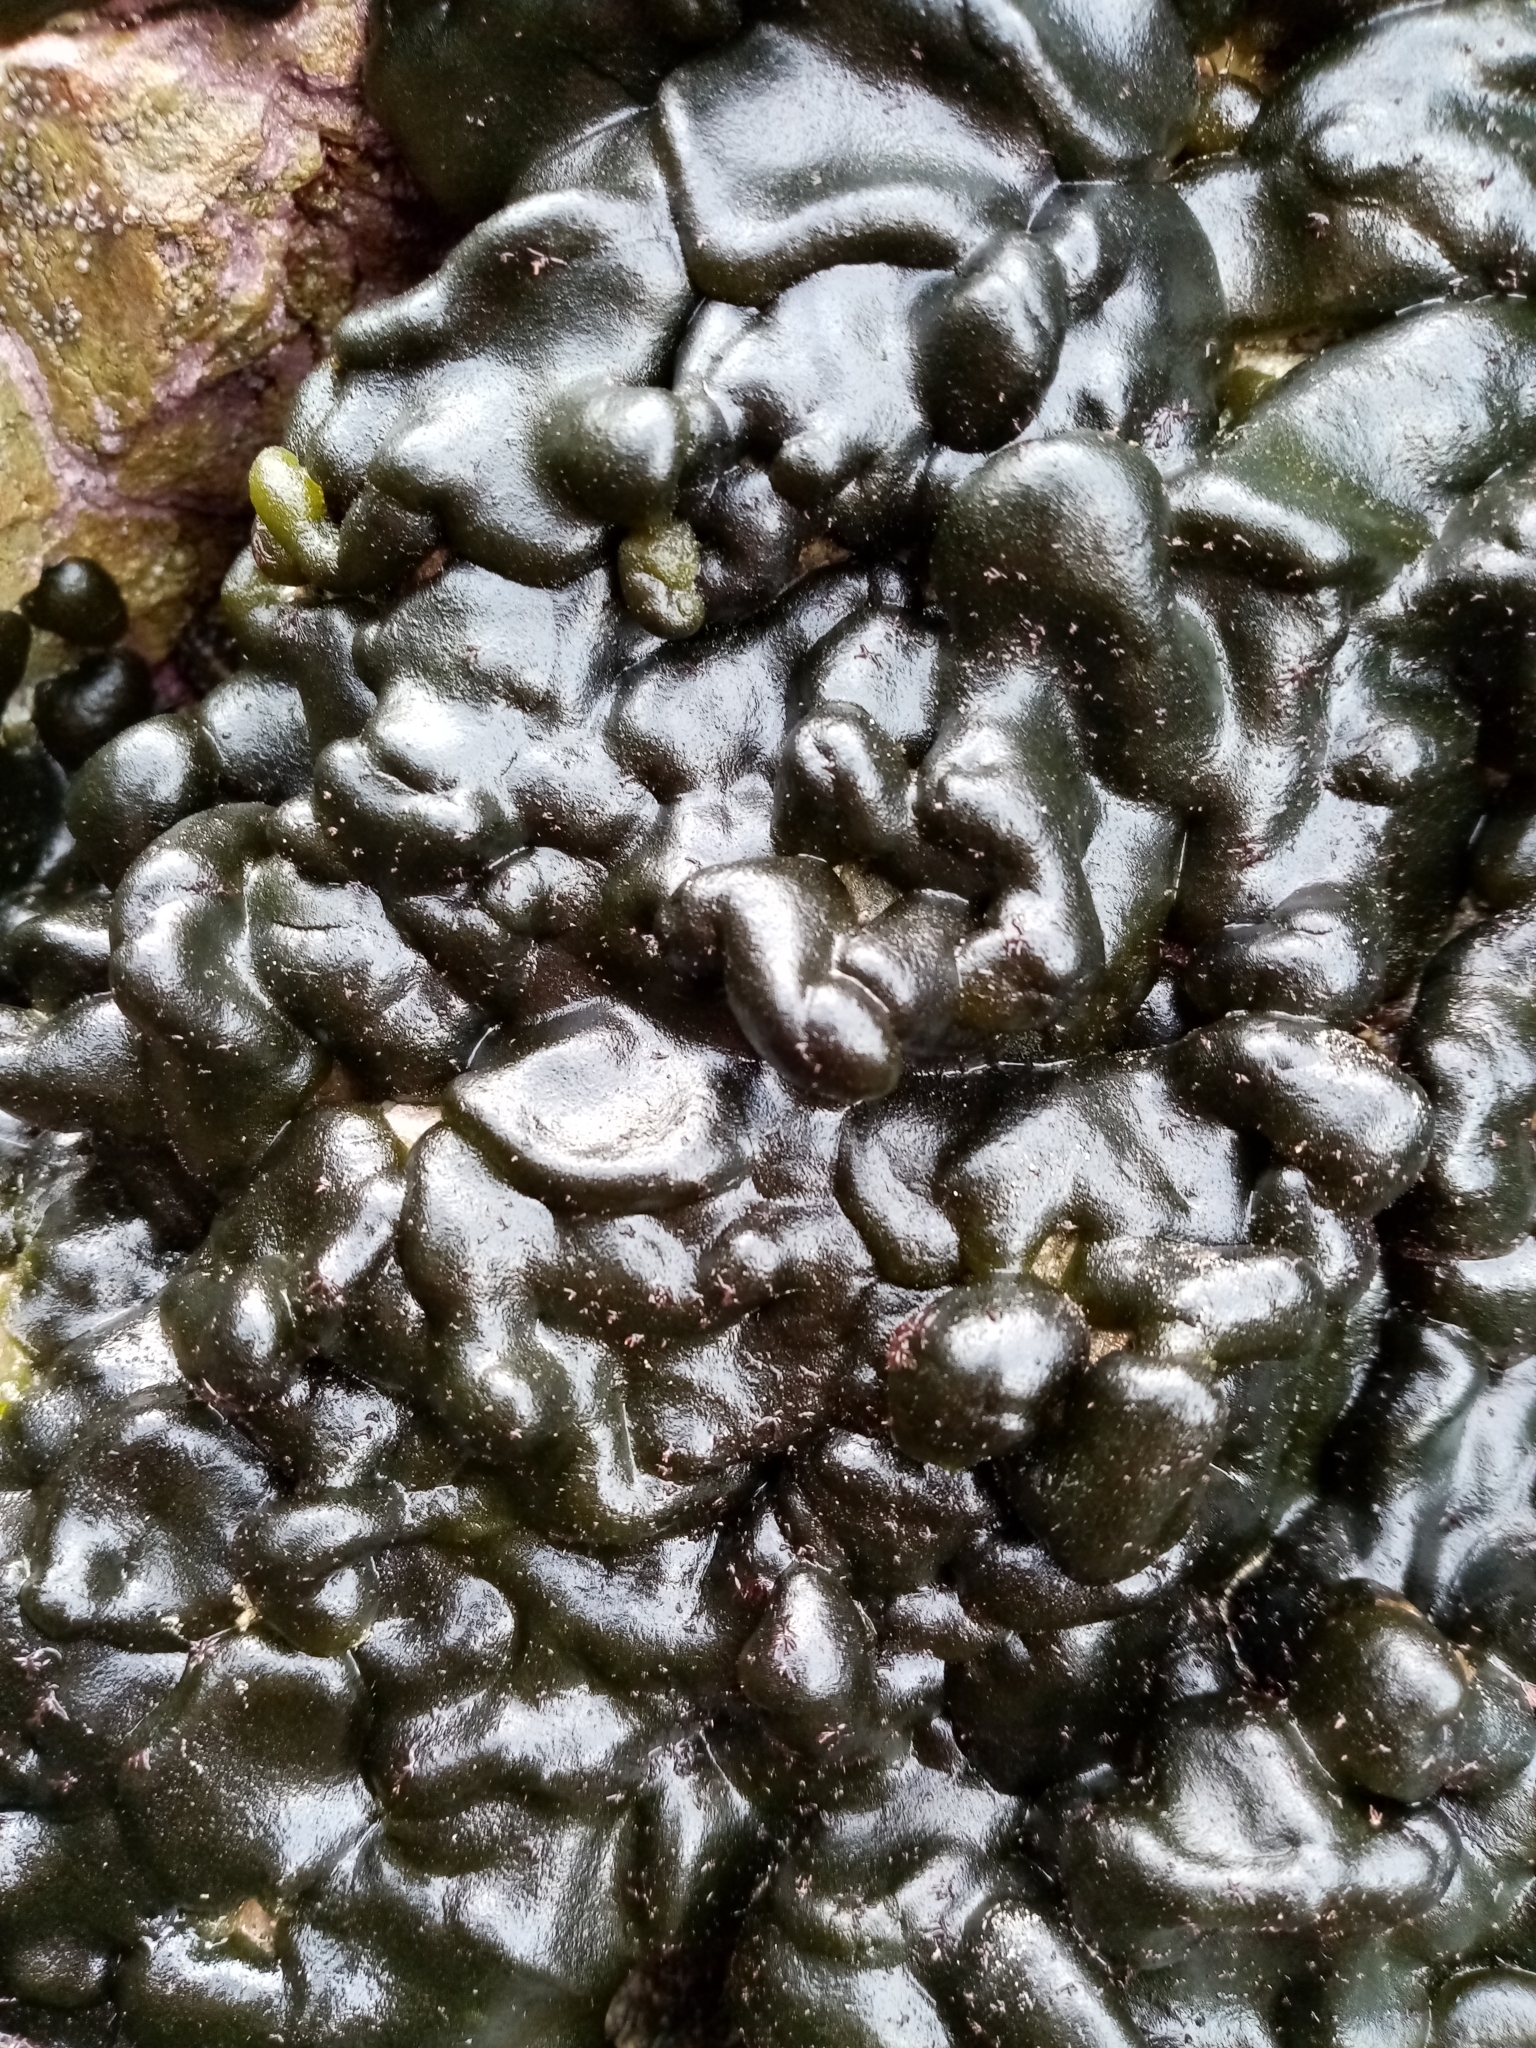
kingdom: Plantae
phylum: Chlorophyta
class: Ulvophyceae
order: Bryopsidales
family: Codiaceae
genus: Codium
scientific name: Codium convolutum
